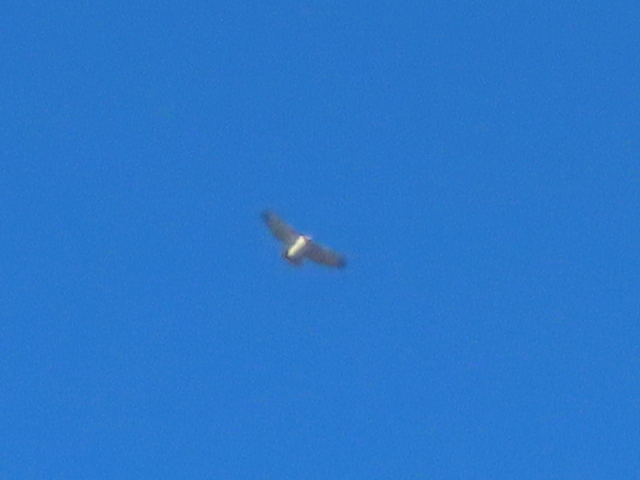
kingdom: Animalia
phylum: Chordata
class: Aves
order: Accipitriformes
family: Accipitridae
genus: Buteo
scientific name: Buteo jamaicensis
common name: Red-tailed hawk
